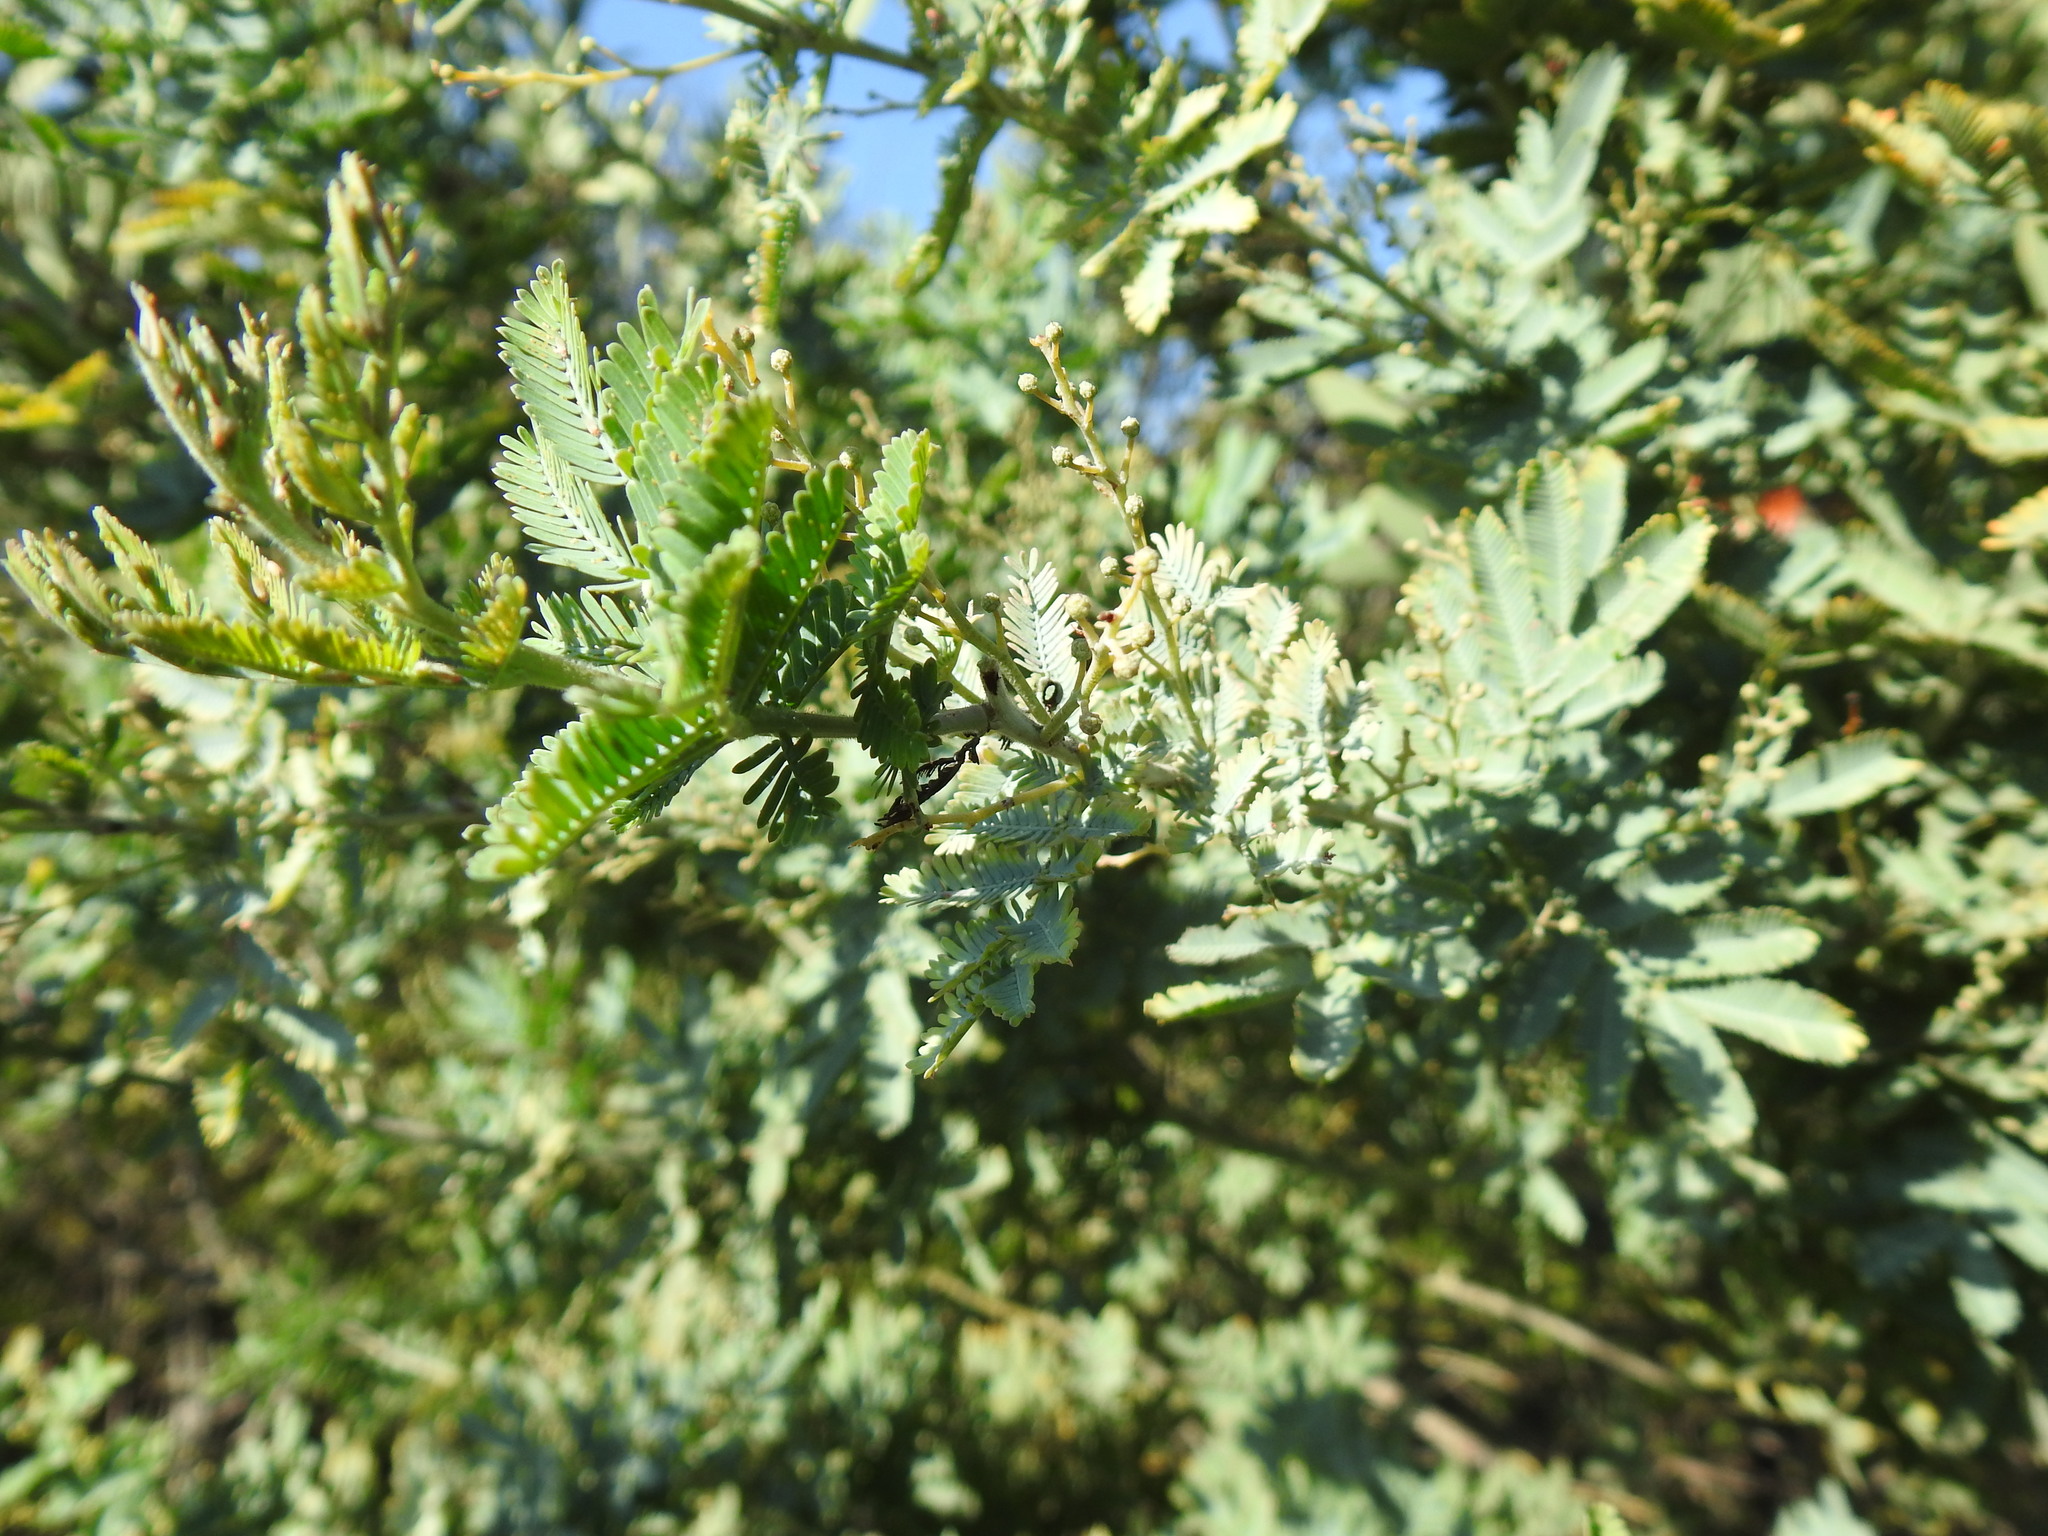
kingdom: Plantae
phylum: Tracheophyta
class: Magnoliopsida
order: Fabales
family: Fabaceae
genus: Acacia
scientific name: Acacia baileyana
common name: Cootamundra wattle
